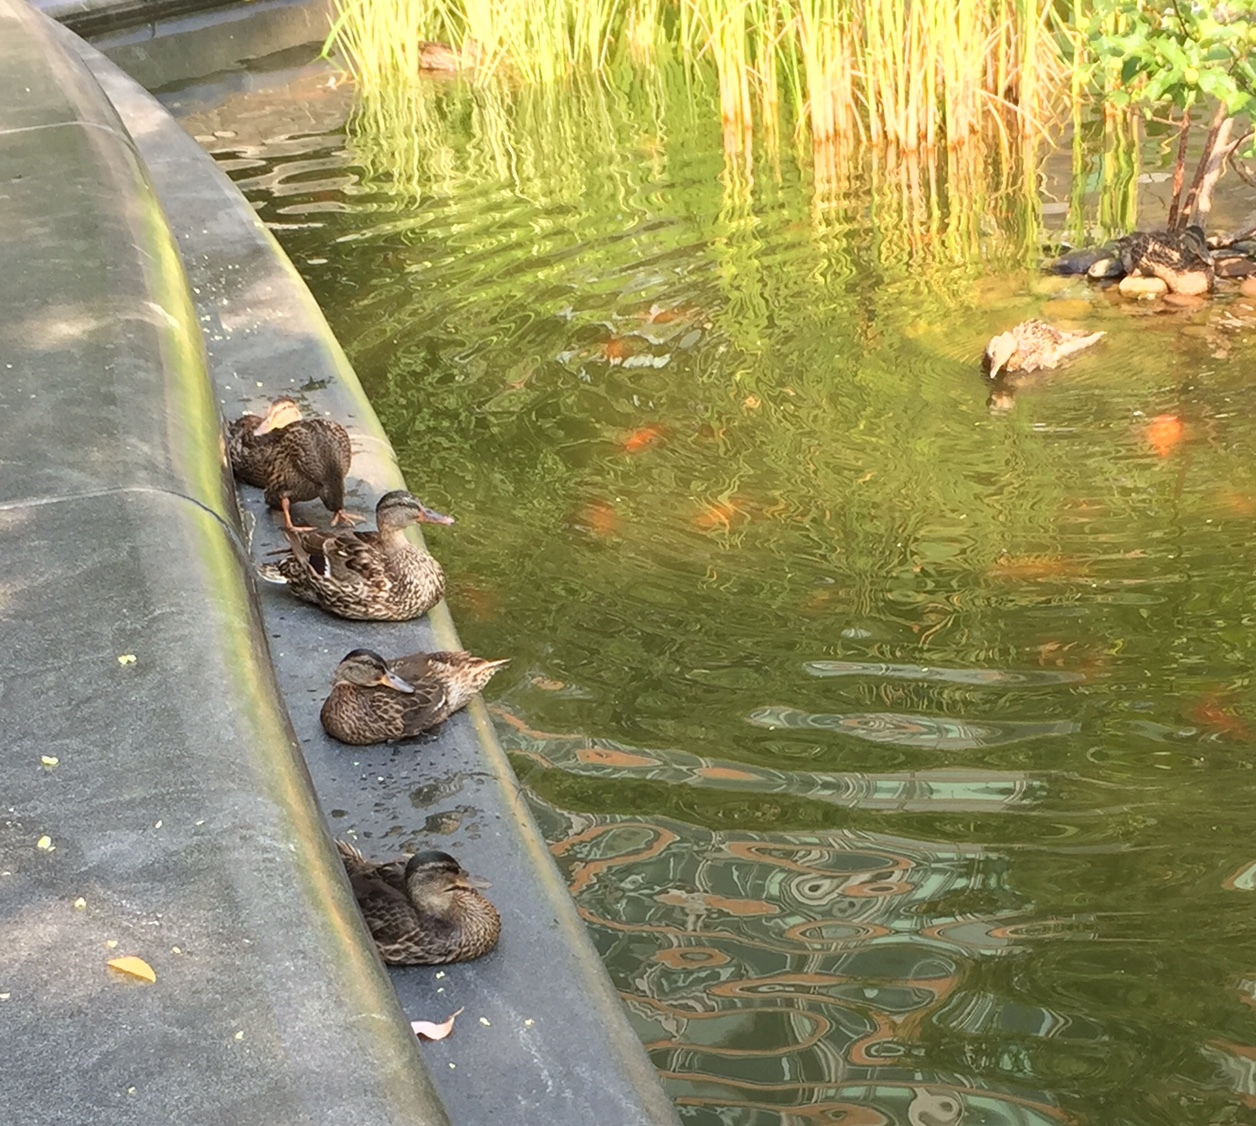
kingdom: Animalia
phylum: Chordata
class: Aves
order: Anseriformes
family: Anatidae
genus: Anas
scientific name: Anas platyrhynchos
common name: Mallard
